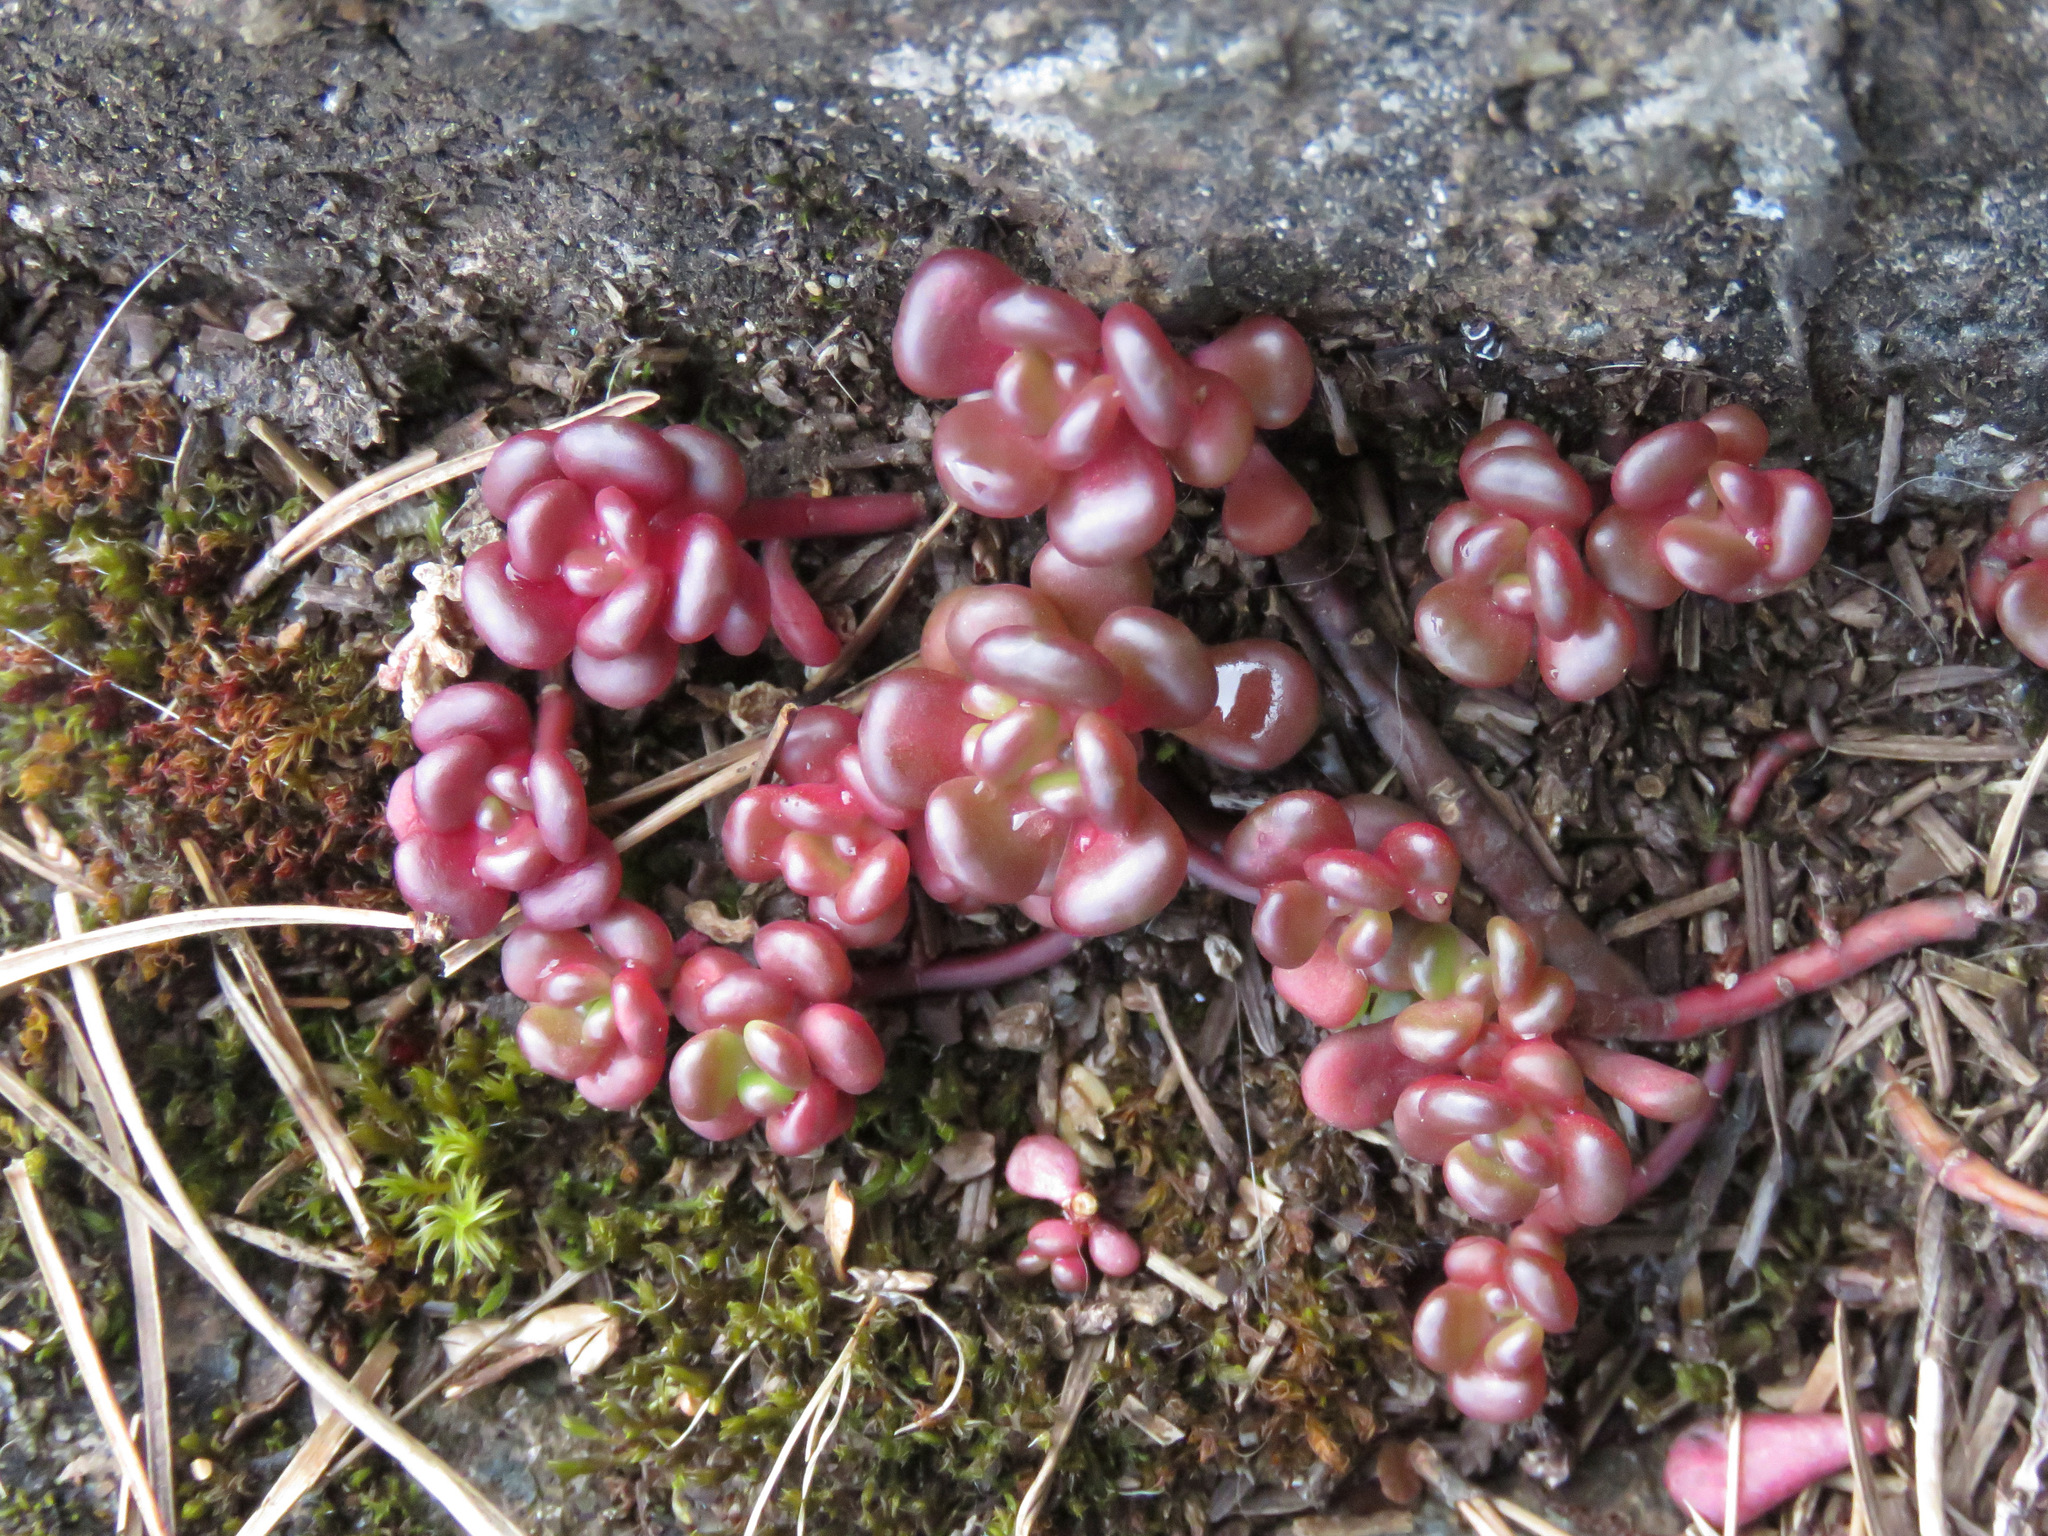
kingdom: Plantae
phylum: Tracheophyta
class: Magnoliopsida
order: Saxifragales
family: Crassulaceae
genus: Sedum
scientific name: Sedum oreganum
